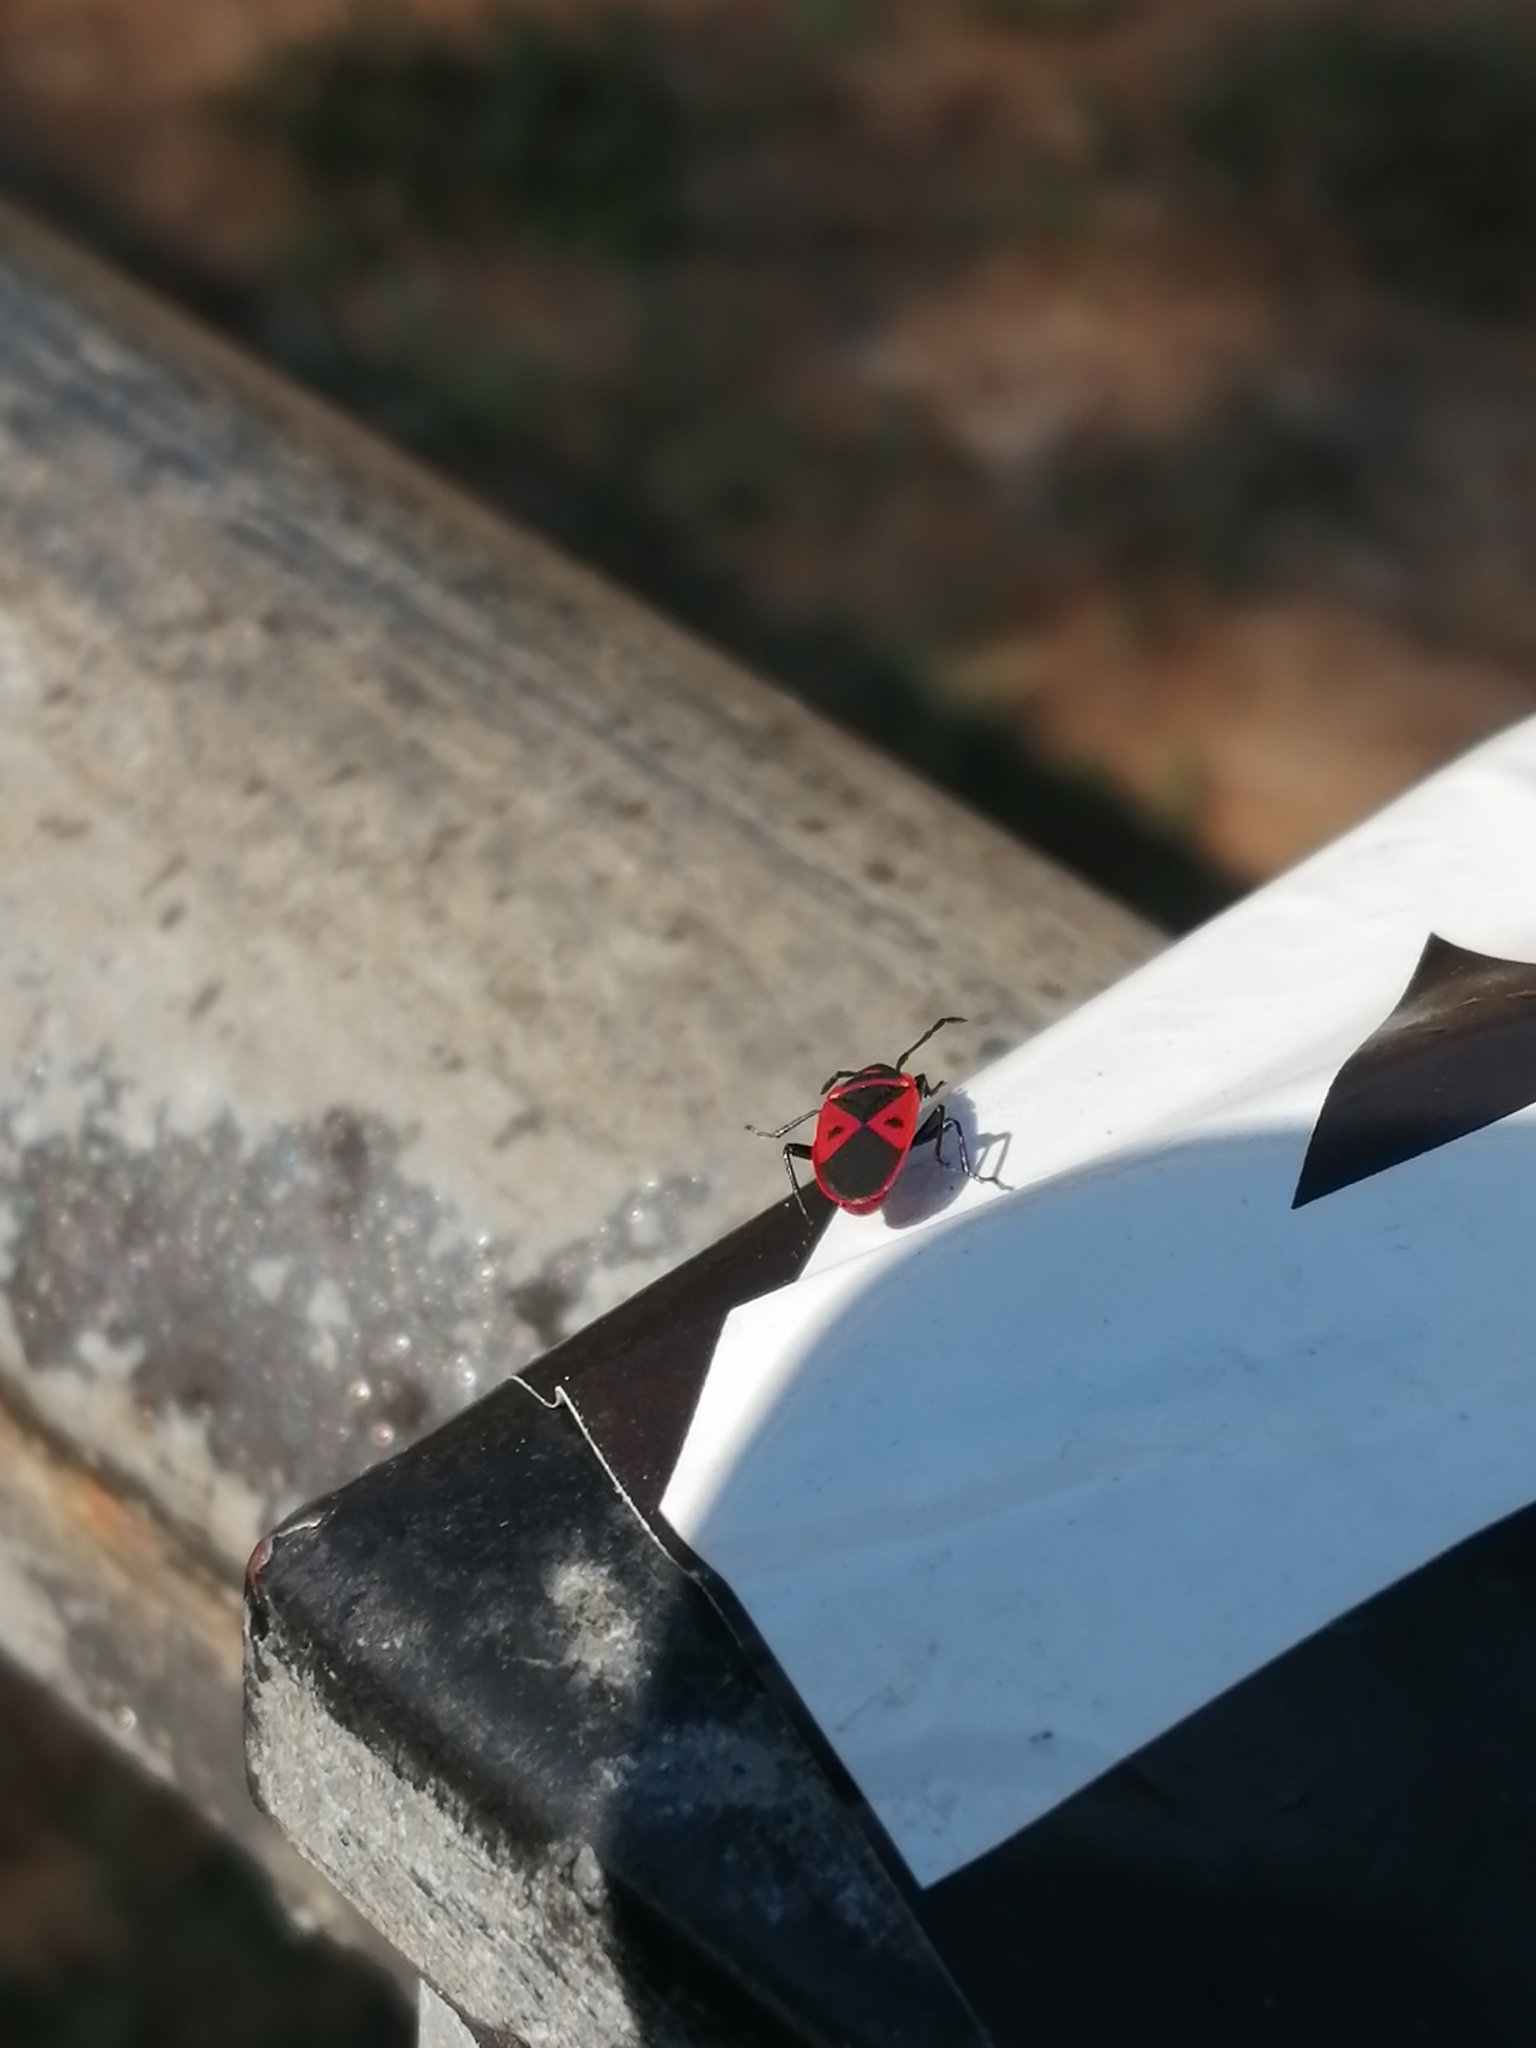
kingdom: Animalia
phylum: Arthropoda
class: Insecta
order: Hemiptera
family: Pyrrhocoridae
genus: Scantius
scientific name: Scantius aegyptius
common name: Red bug
